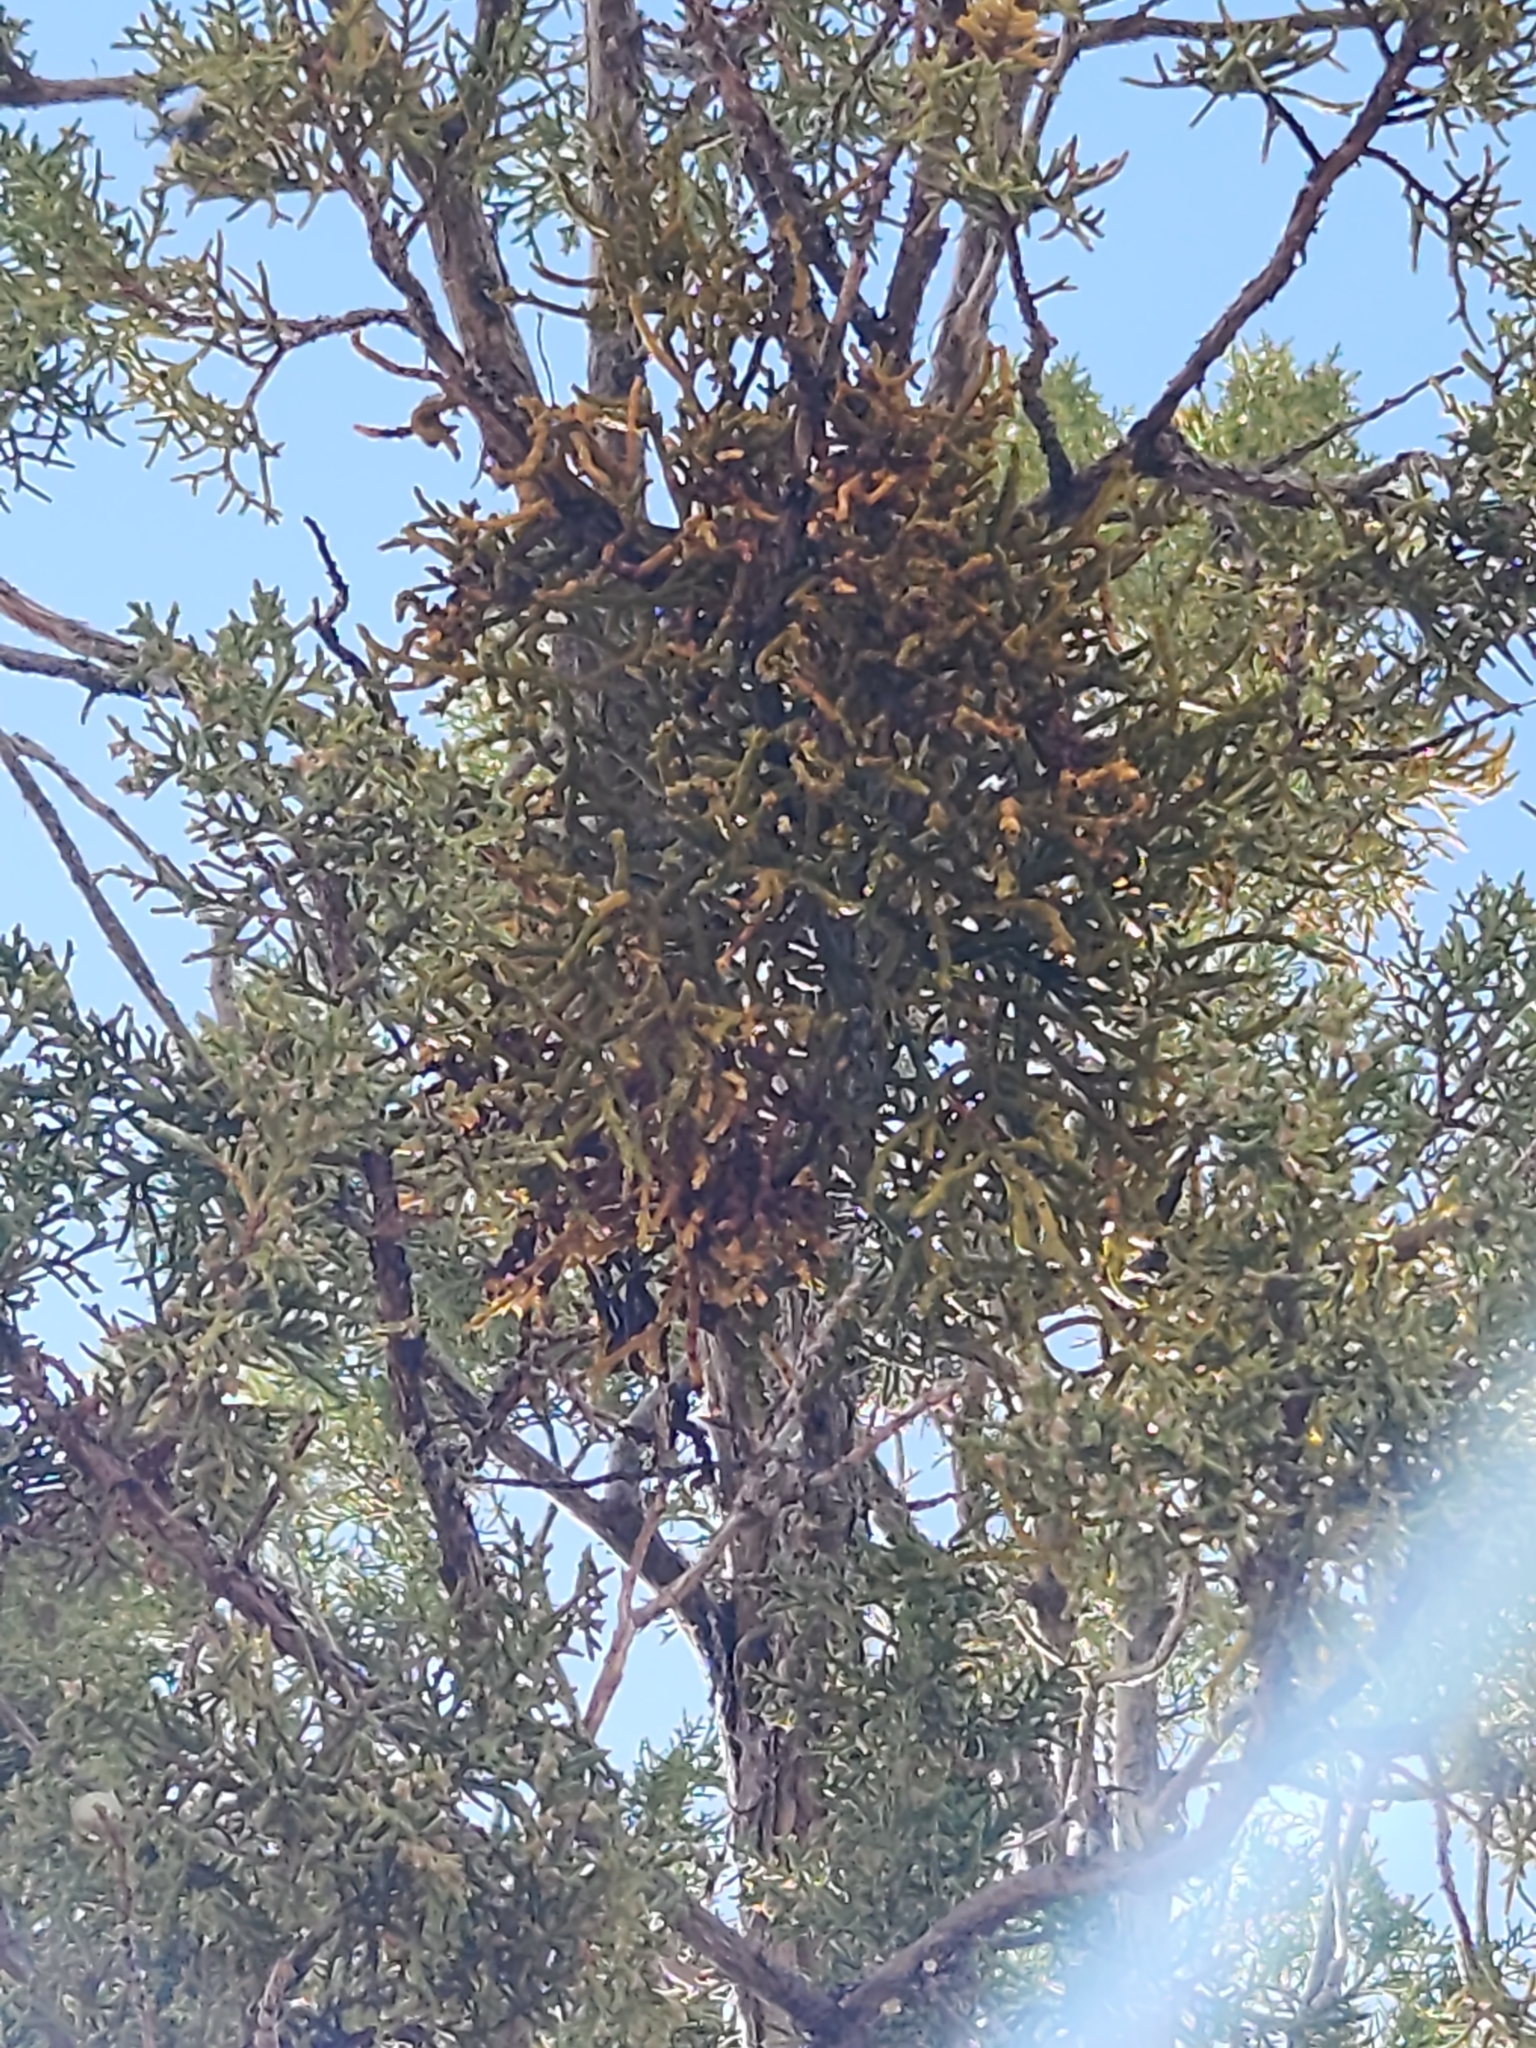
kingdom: Plantae
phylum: Tracheophyta
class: Magnoliopsida
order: Santalales
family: Viscaceae
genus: Phoradendron
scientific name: Phoradendron juniperinum
